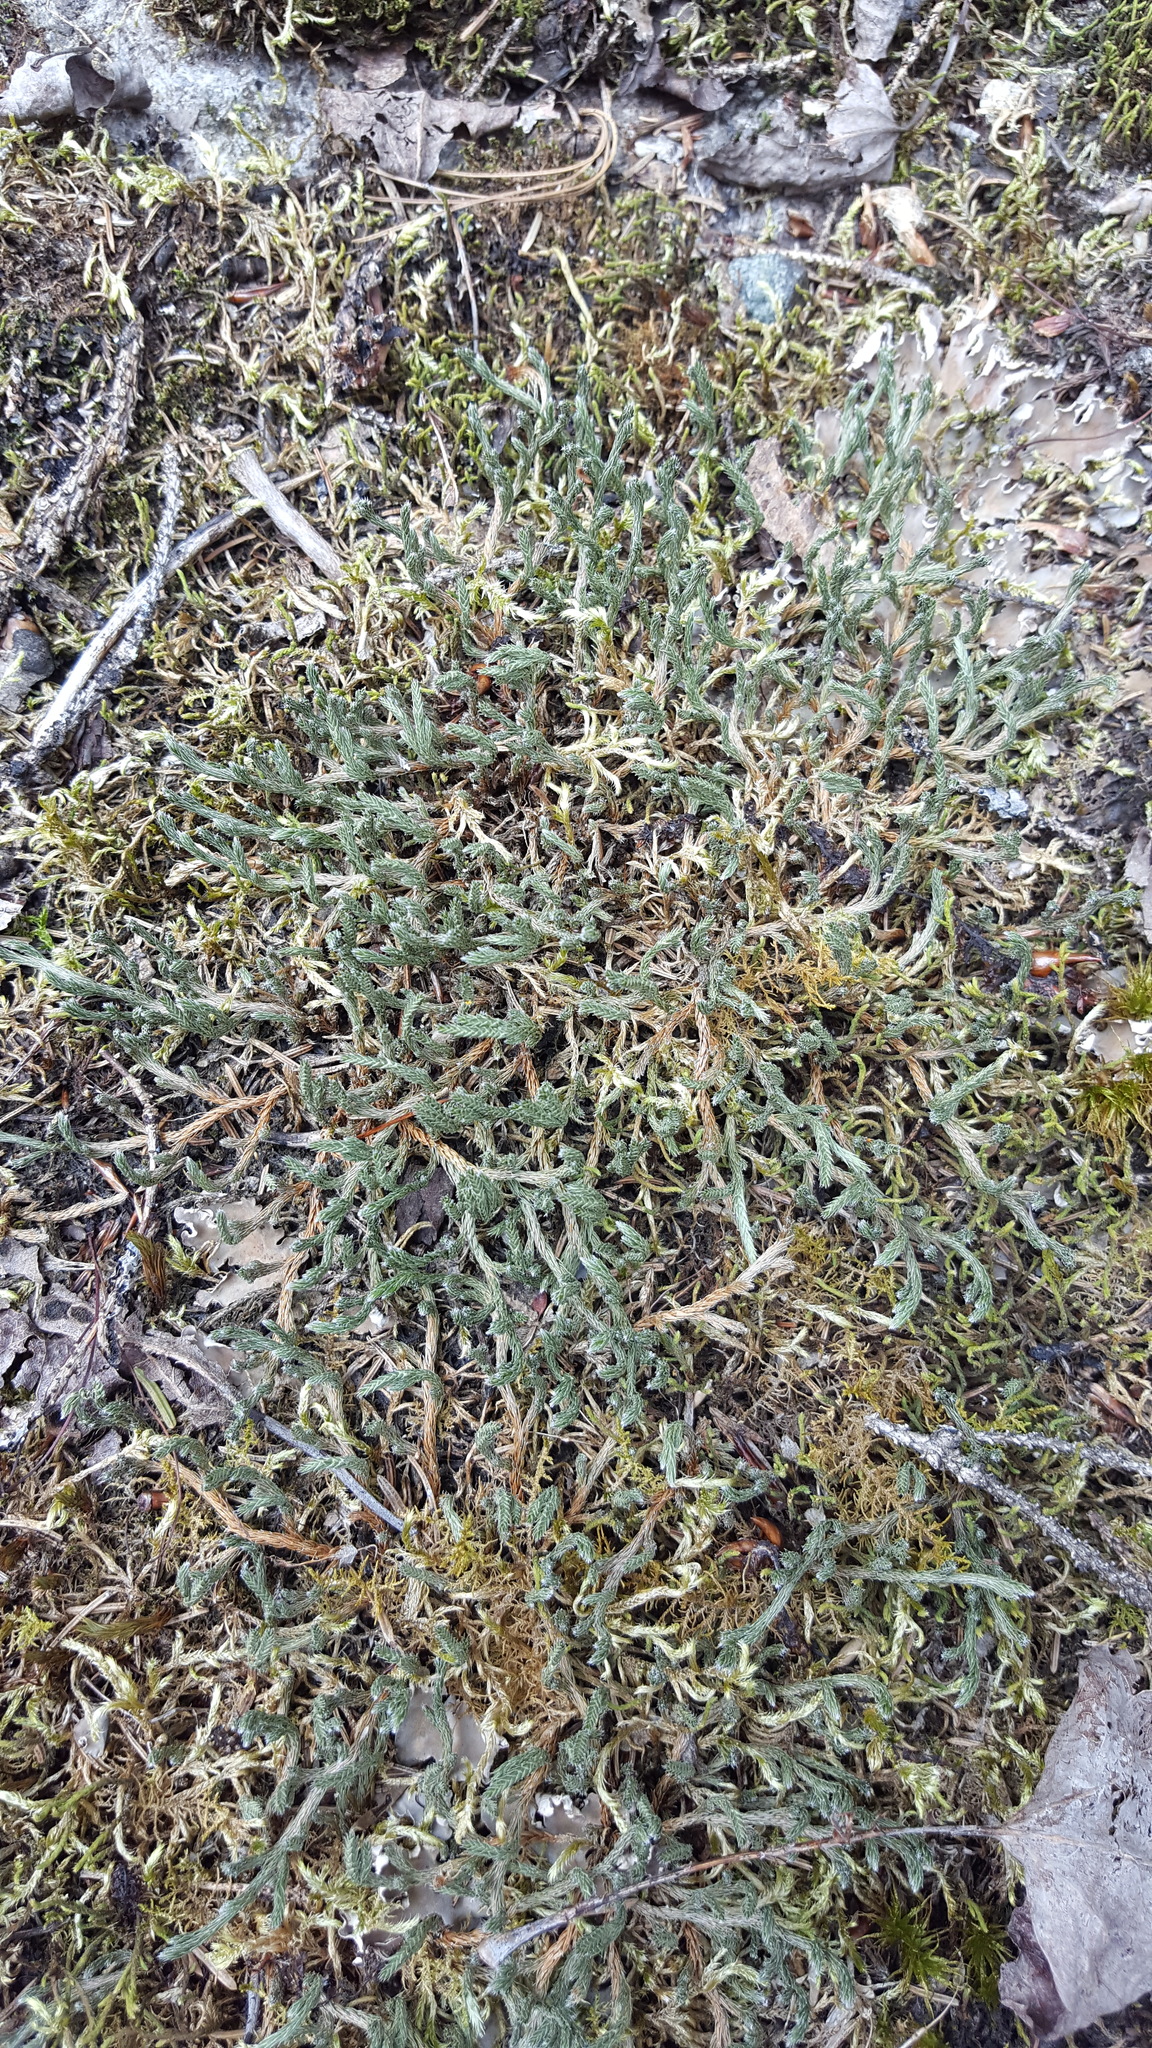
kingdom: Plantae
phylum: Tracheophyta
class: Lycopodiopsida
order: Selaginellales
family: Selaginellaceae
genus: Selaginella
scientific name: Selaginella rupestris
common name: Dwarf spikemoss
